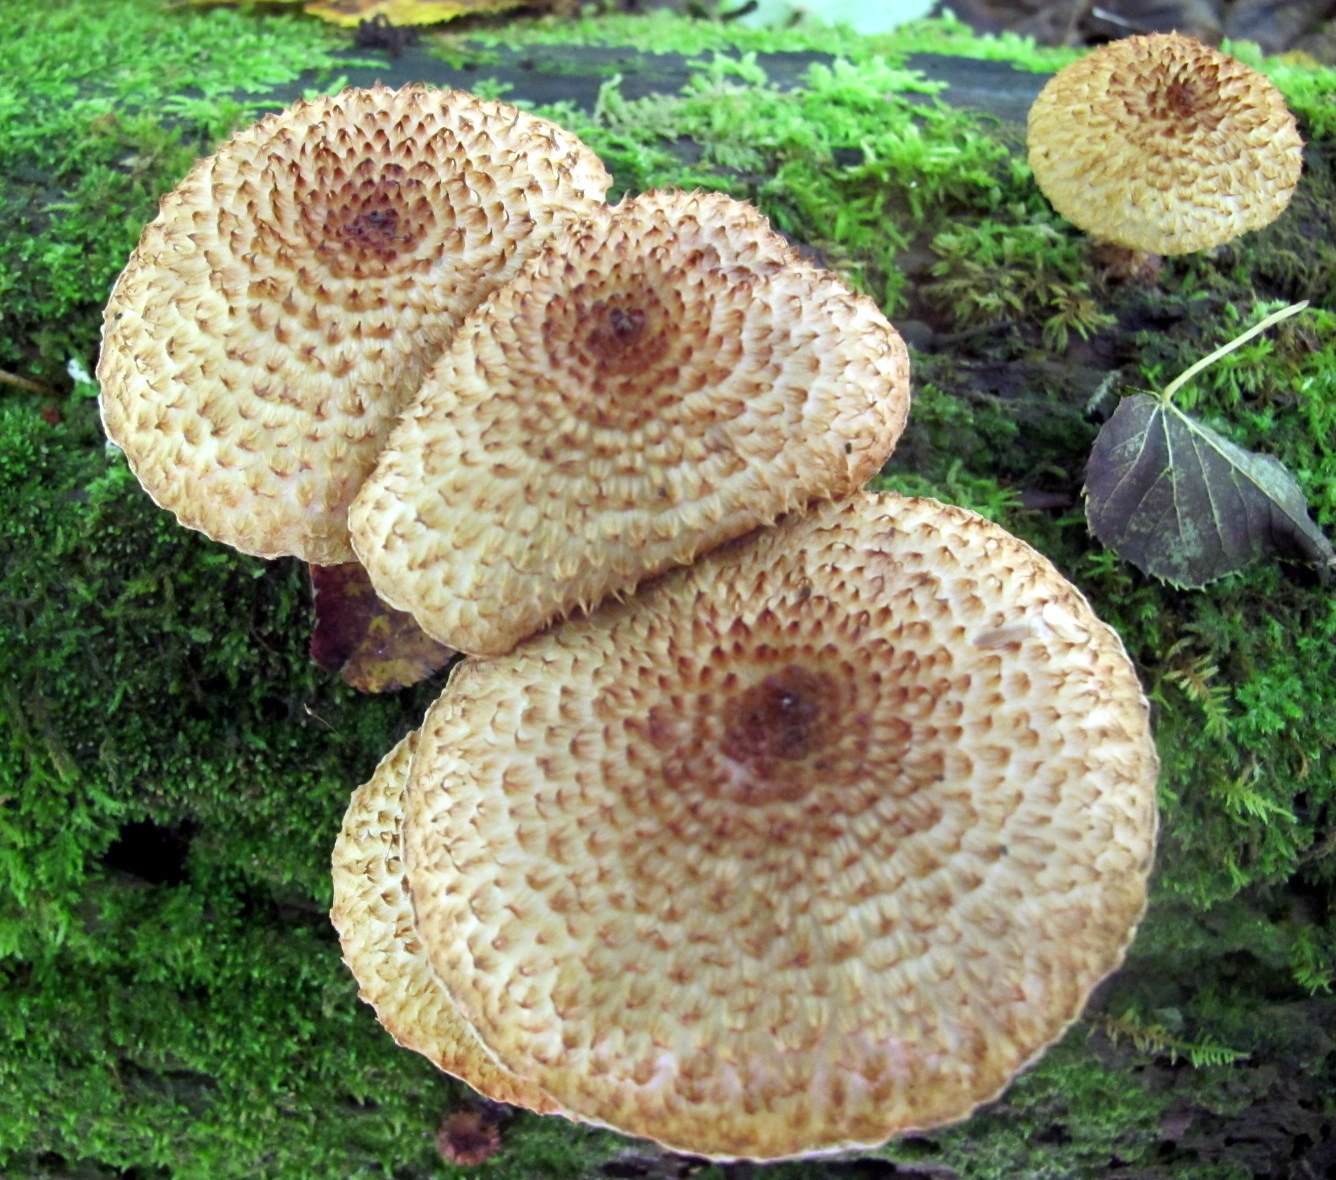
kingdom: Fungi
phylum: Basidiomycota
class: Agaricomycetes
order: Agaricales
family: Agaricaceae
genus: Leucopholiota
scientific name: Leucopholiota decorosa
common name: Decorated pholiota
